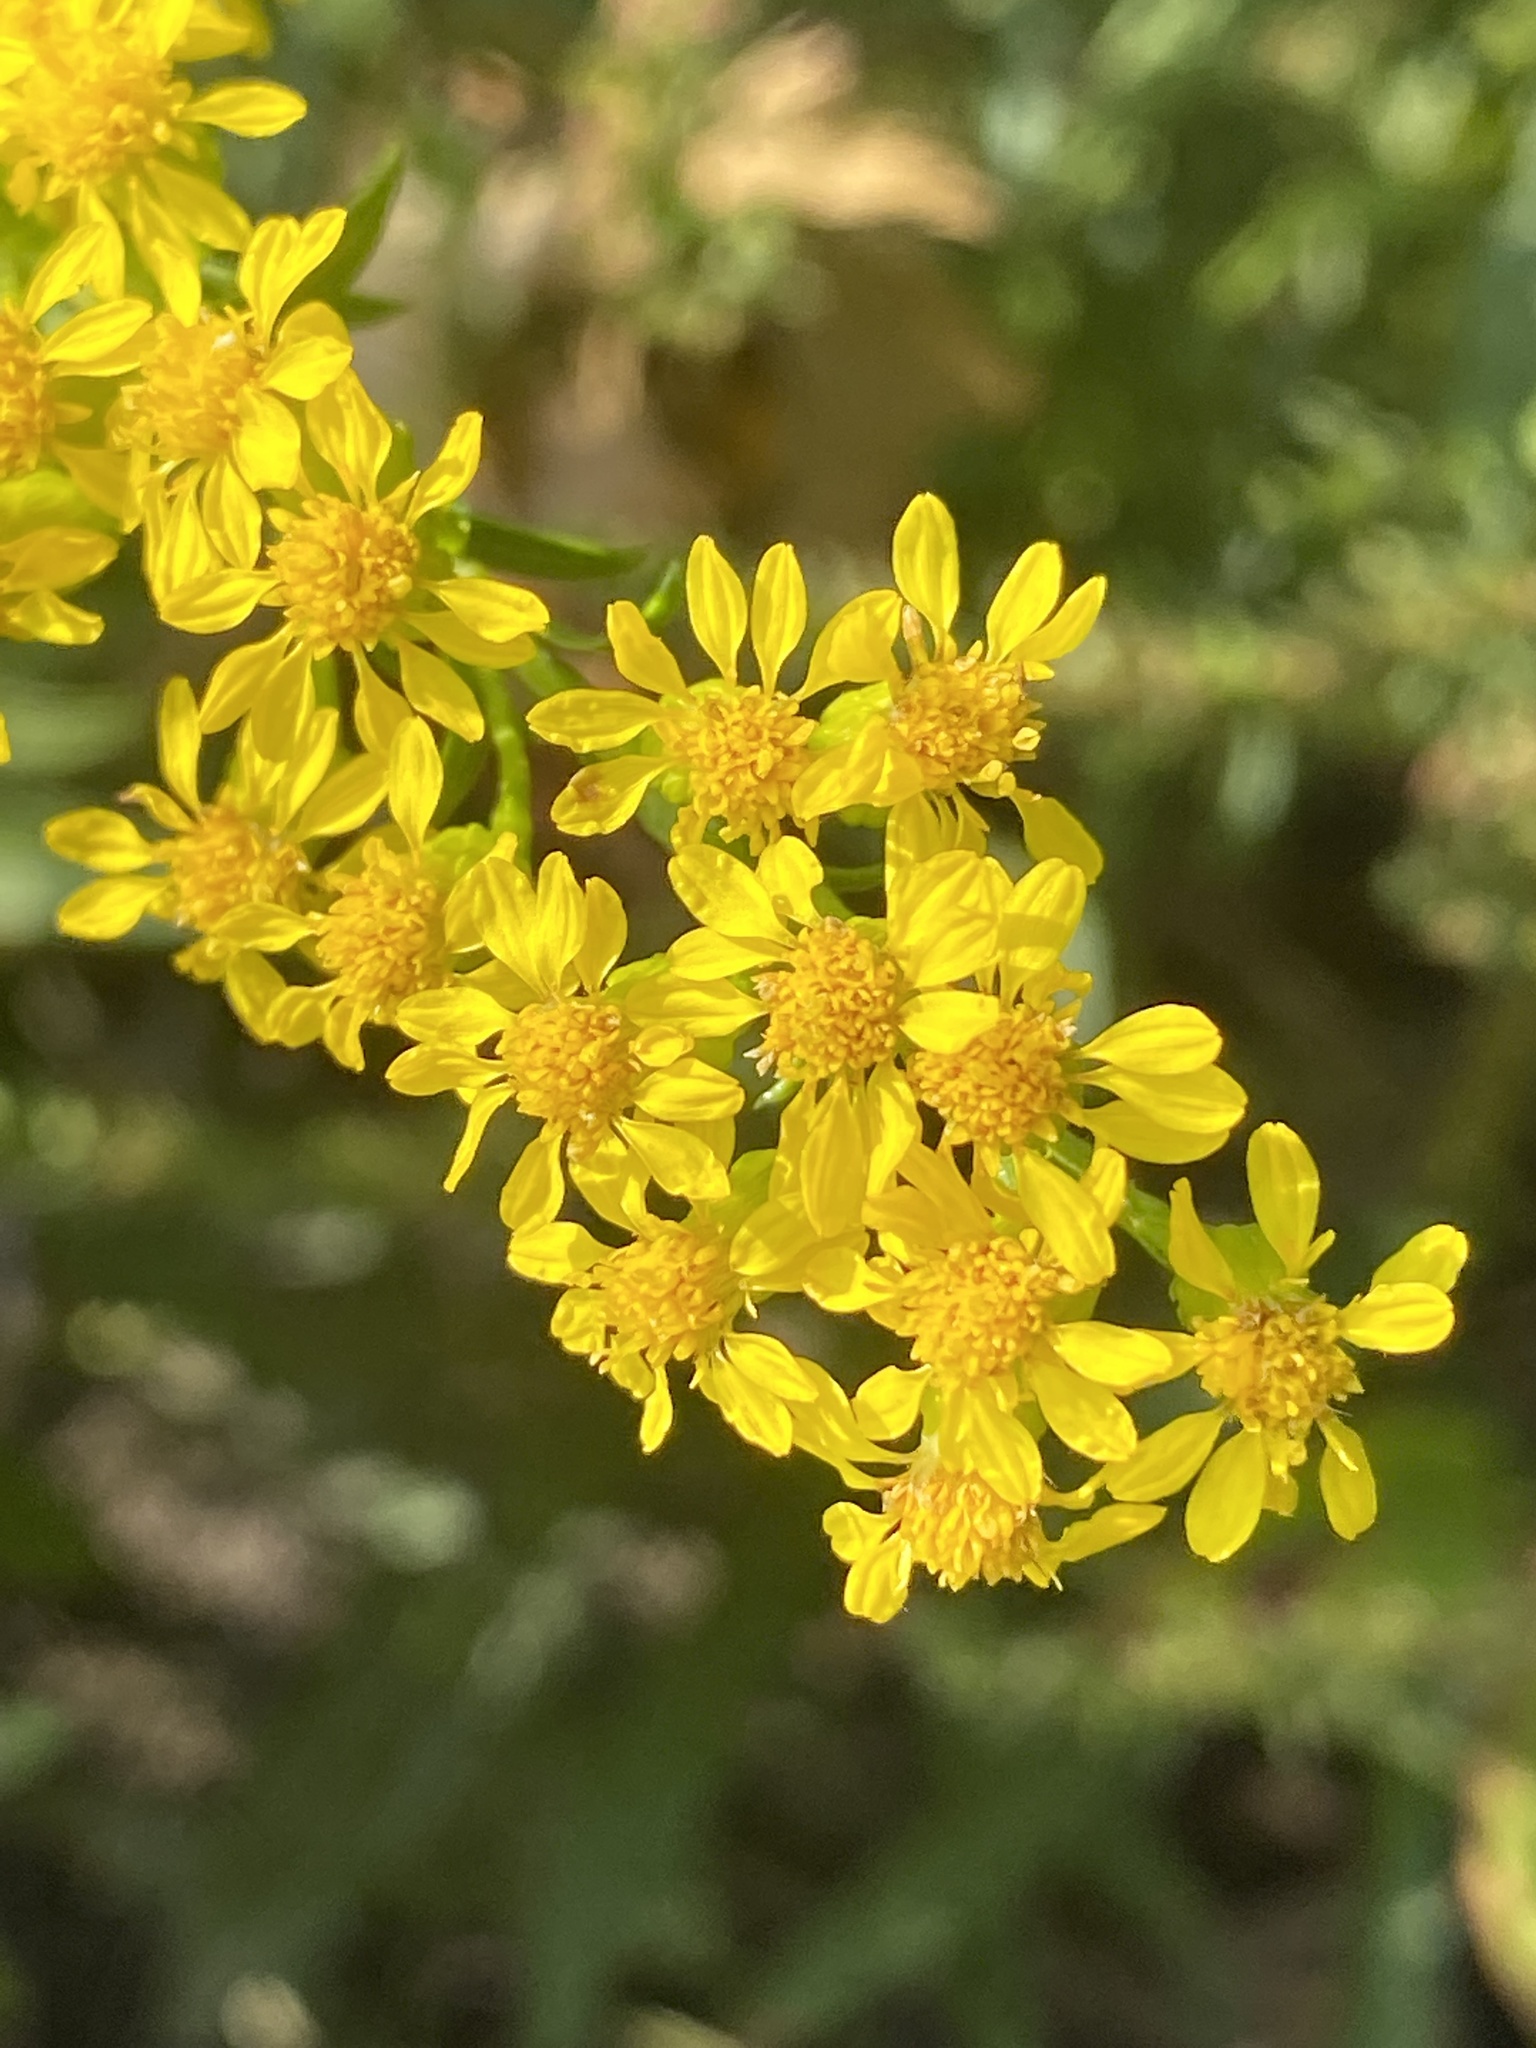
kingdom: Plantae
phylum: Tracheophyta
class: Magnoliopsida
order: Asterales
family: Asteraceae
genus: Solidago
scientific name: Solidago sempervirens
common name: Salt-marsh goldenrod
